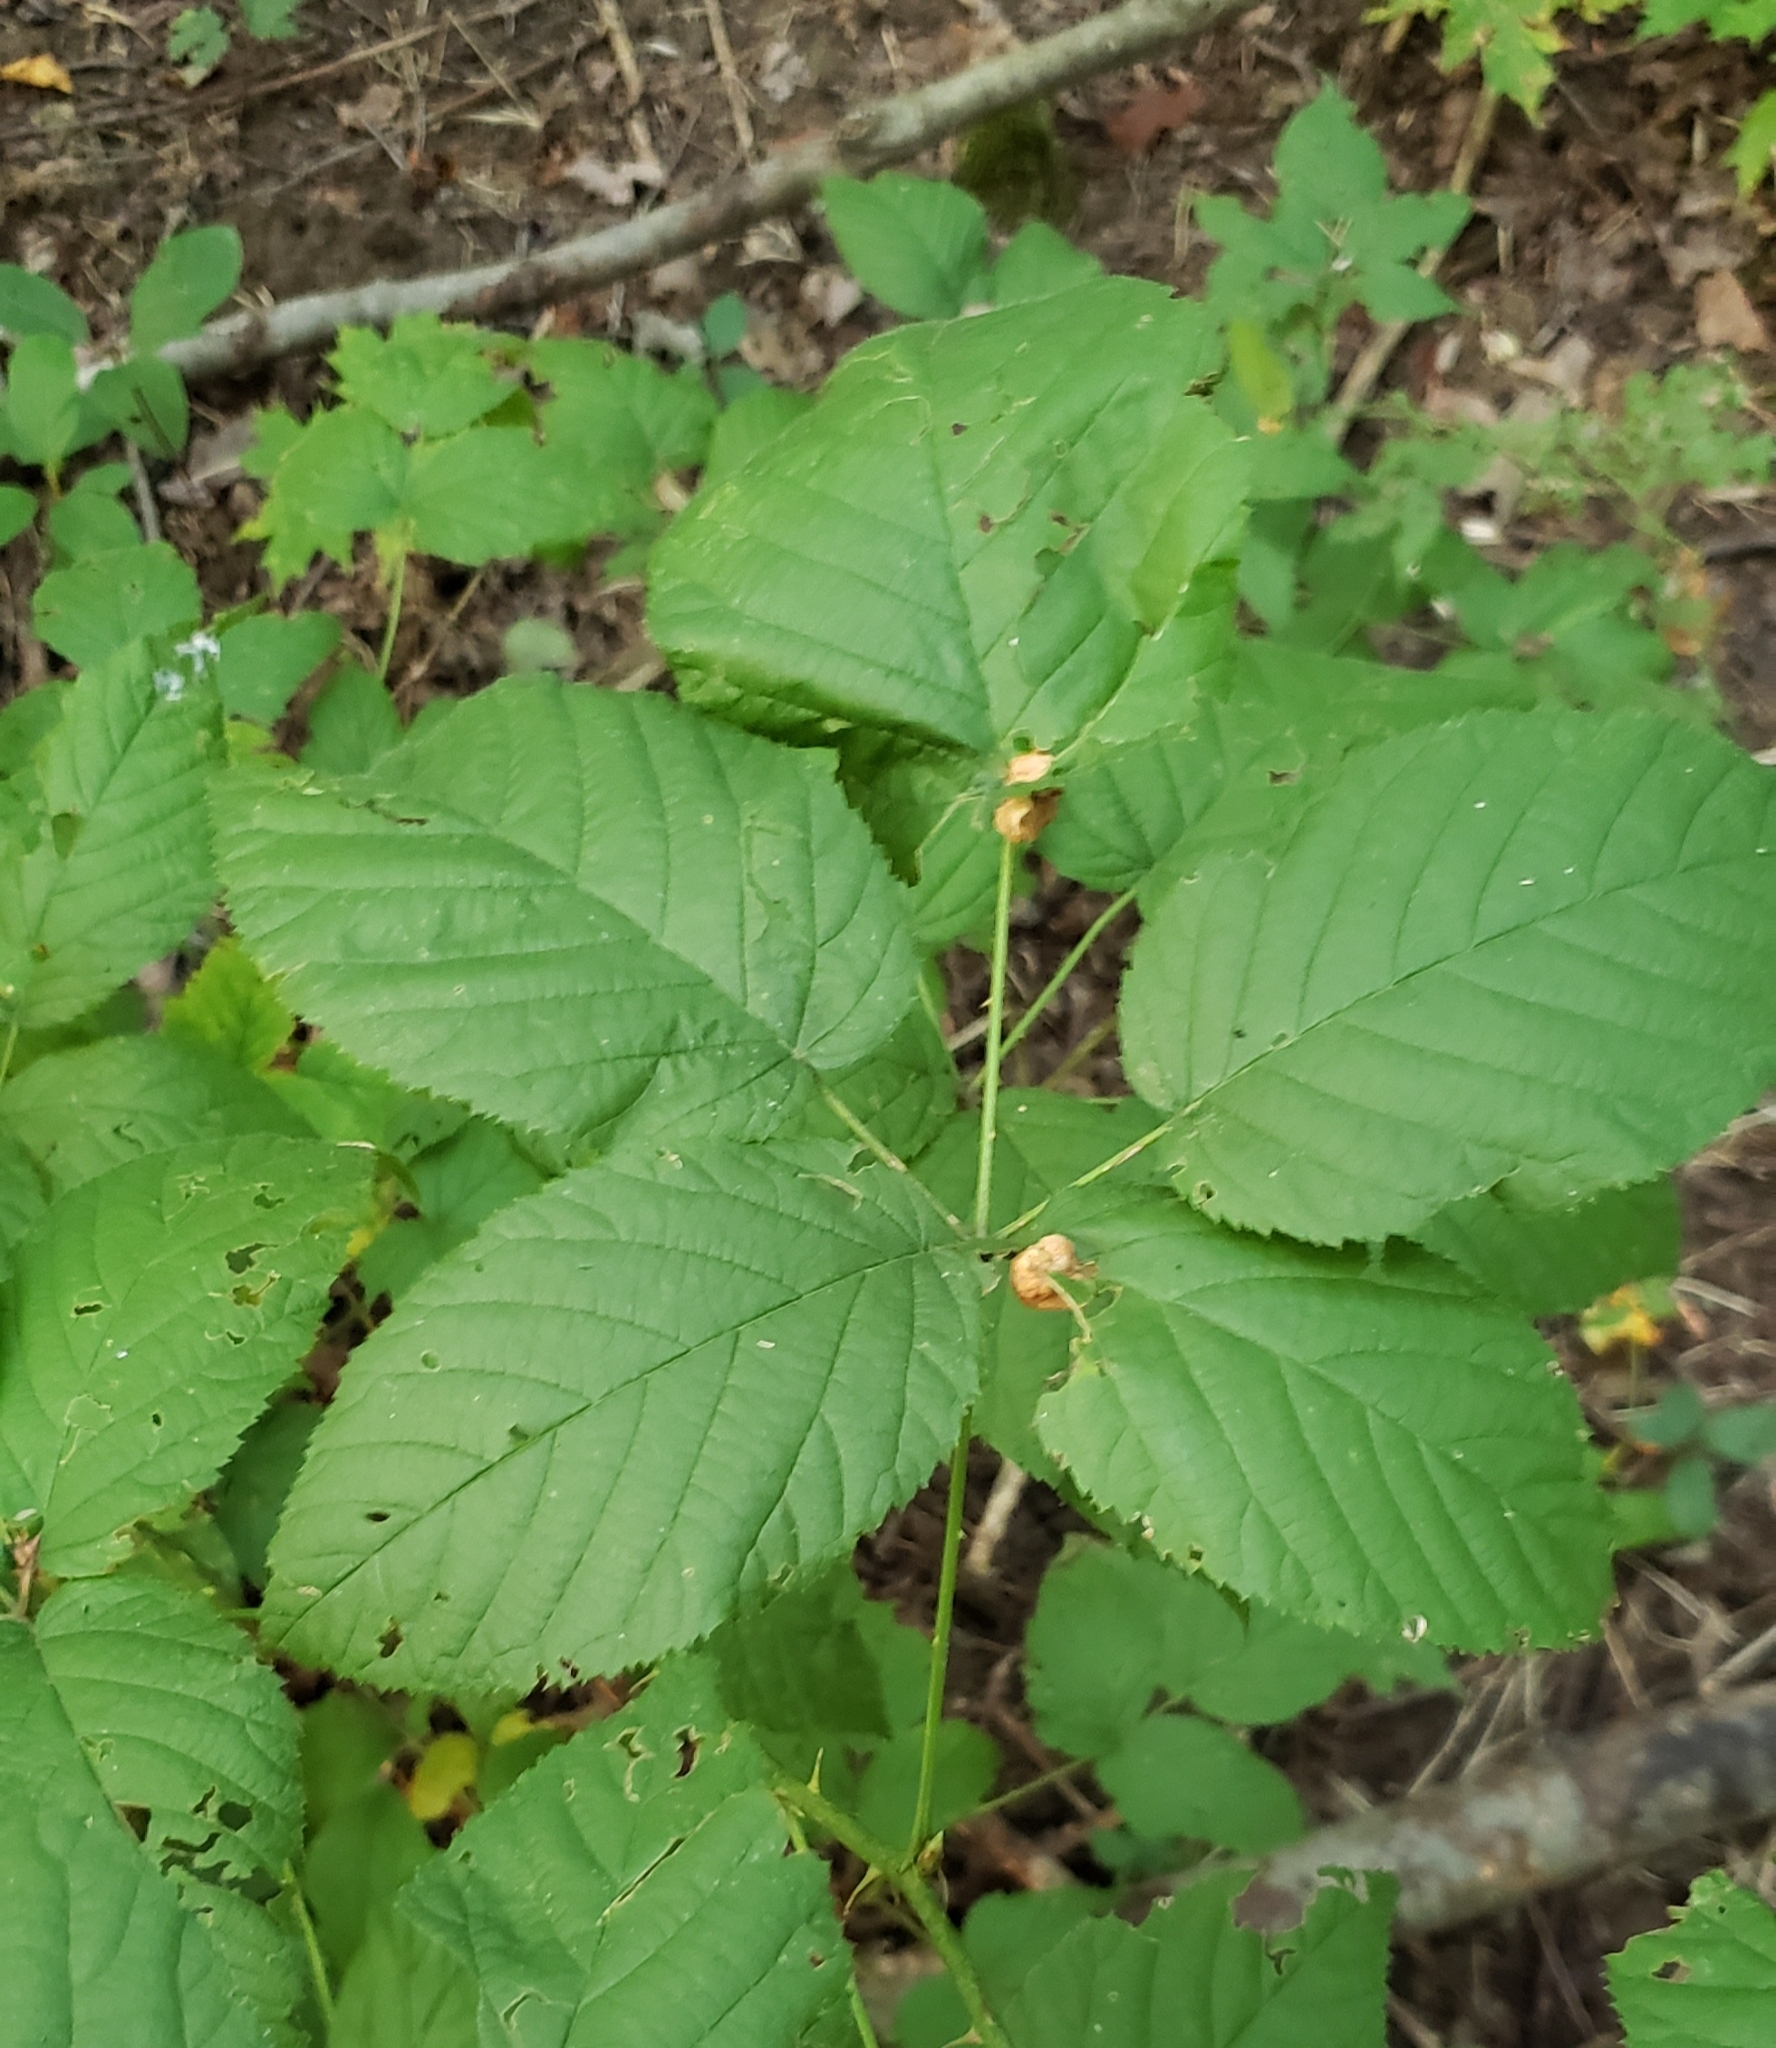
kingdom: Animalia
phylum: Arthropoda
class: Insecta
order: Diptera
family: Cecidomyiidae
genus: Neolasioptera
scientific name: Neolasioptera farinosa
